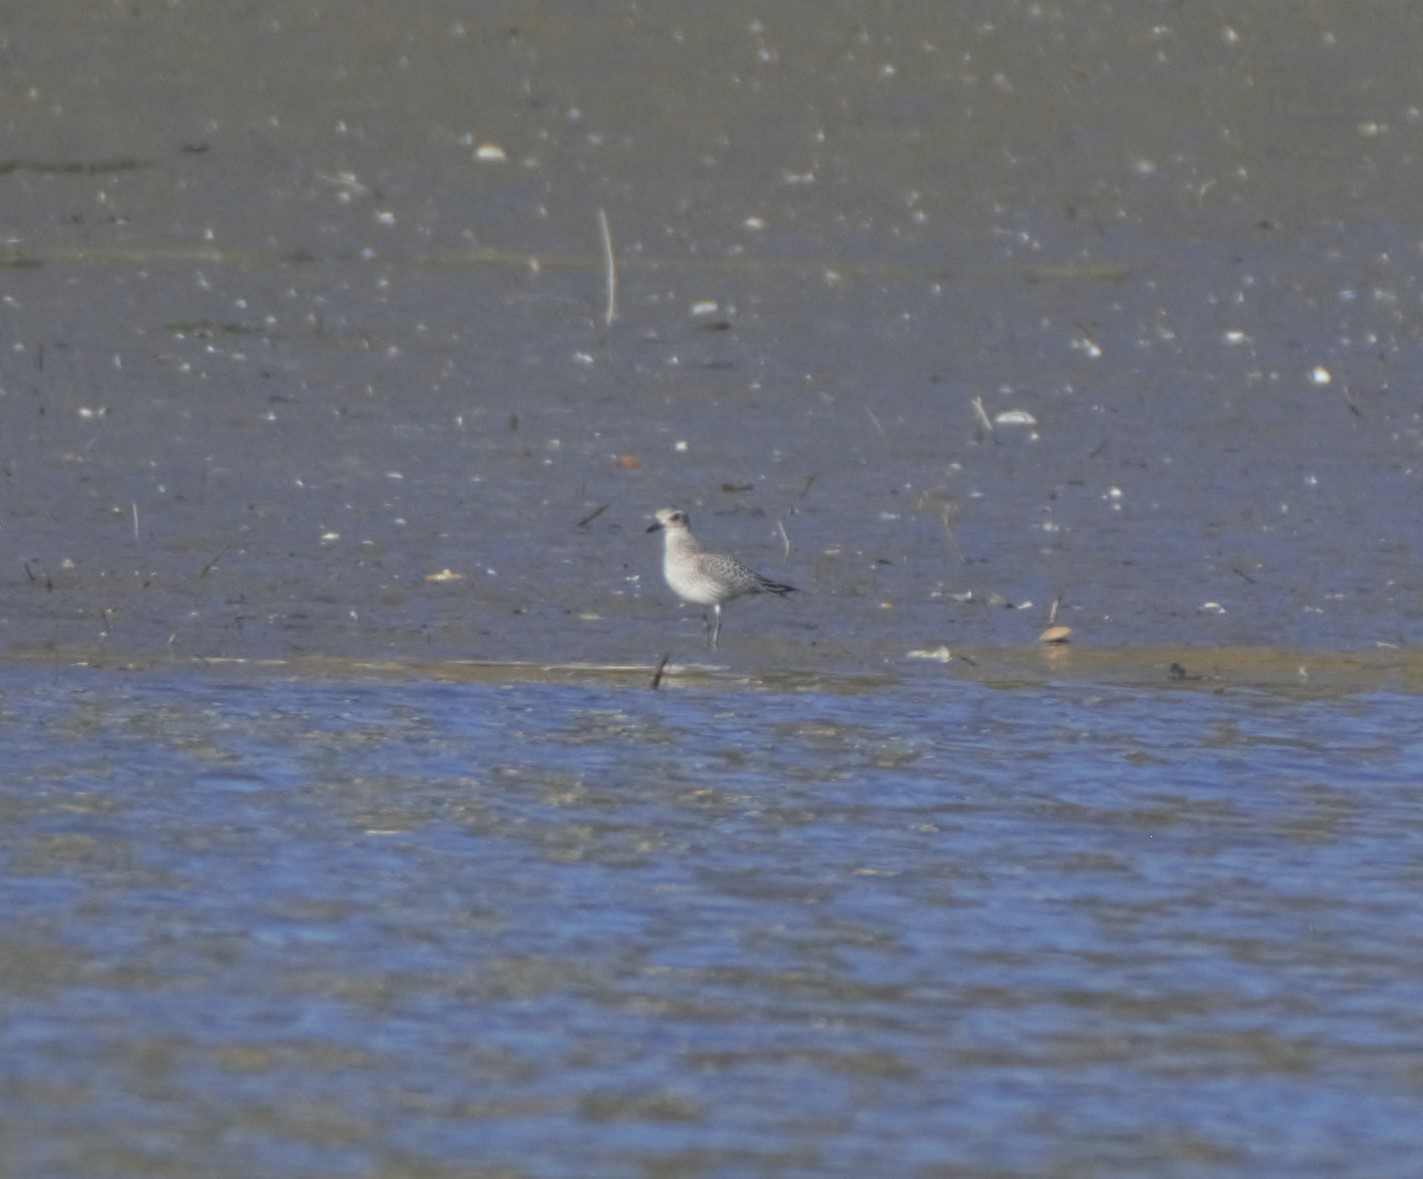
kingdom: Animalia
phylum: Chordata
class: Aves
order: Charadriiformes
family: Charadriidae
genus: Pluvialis
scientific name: Pluvialis squatarola
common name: Grey plover
